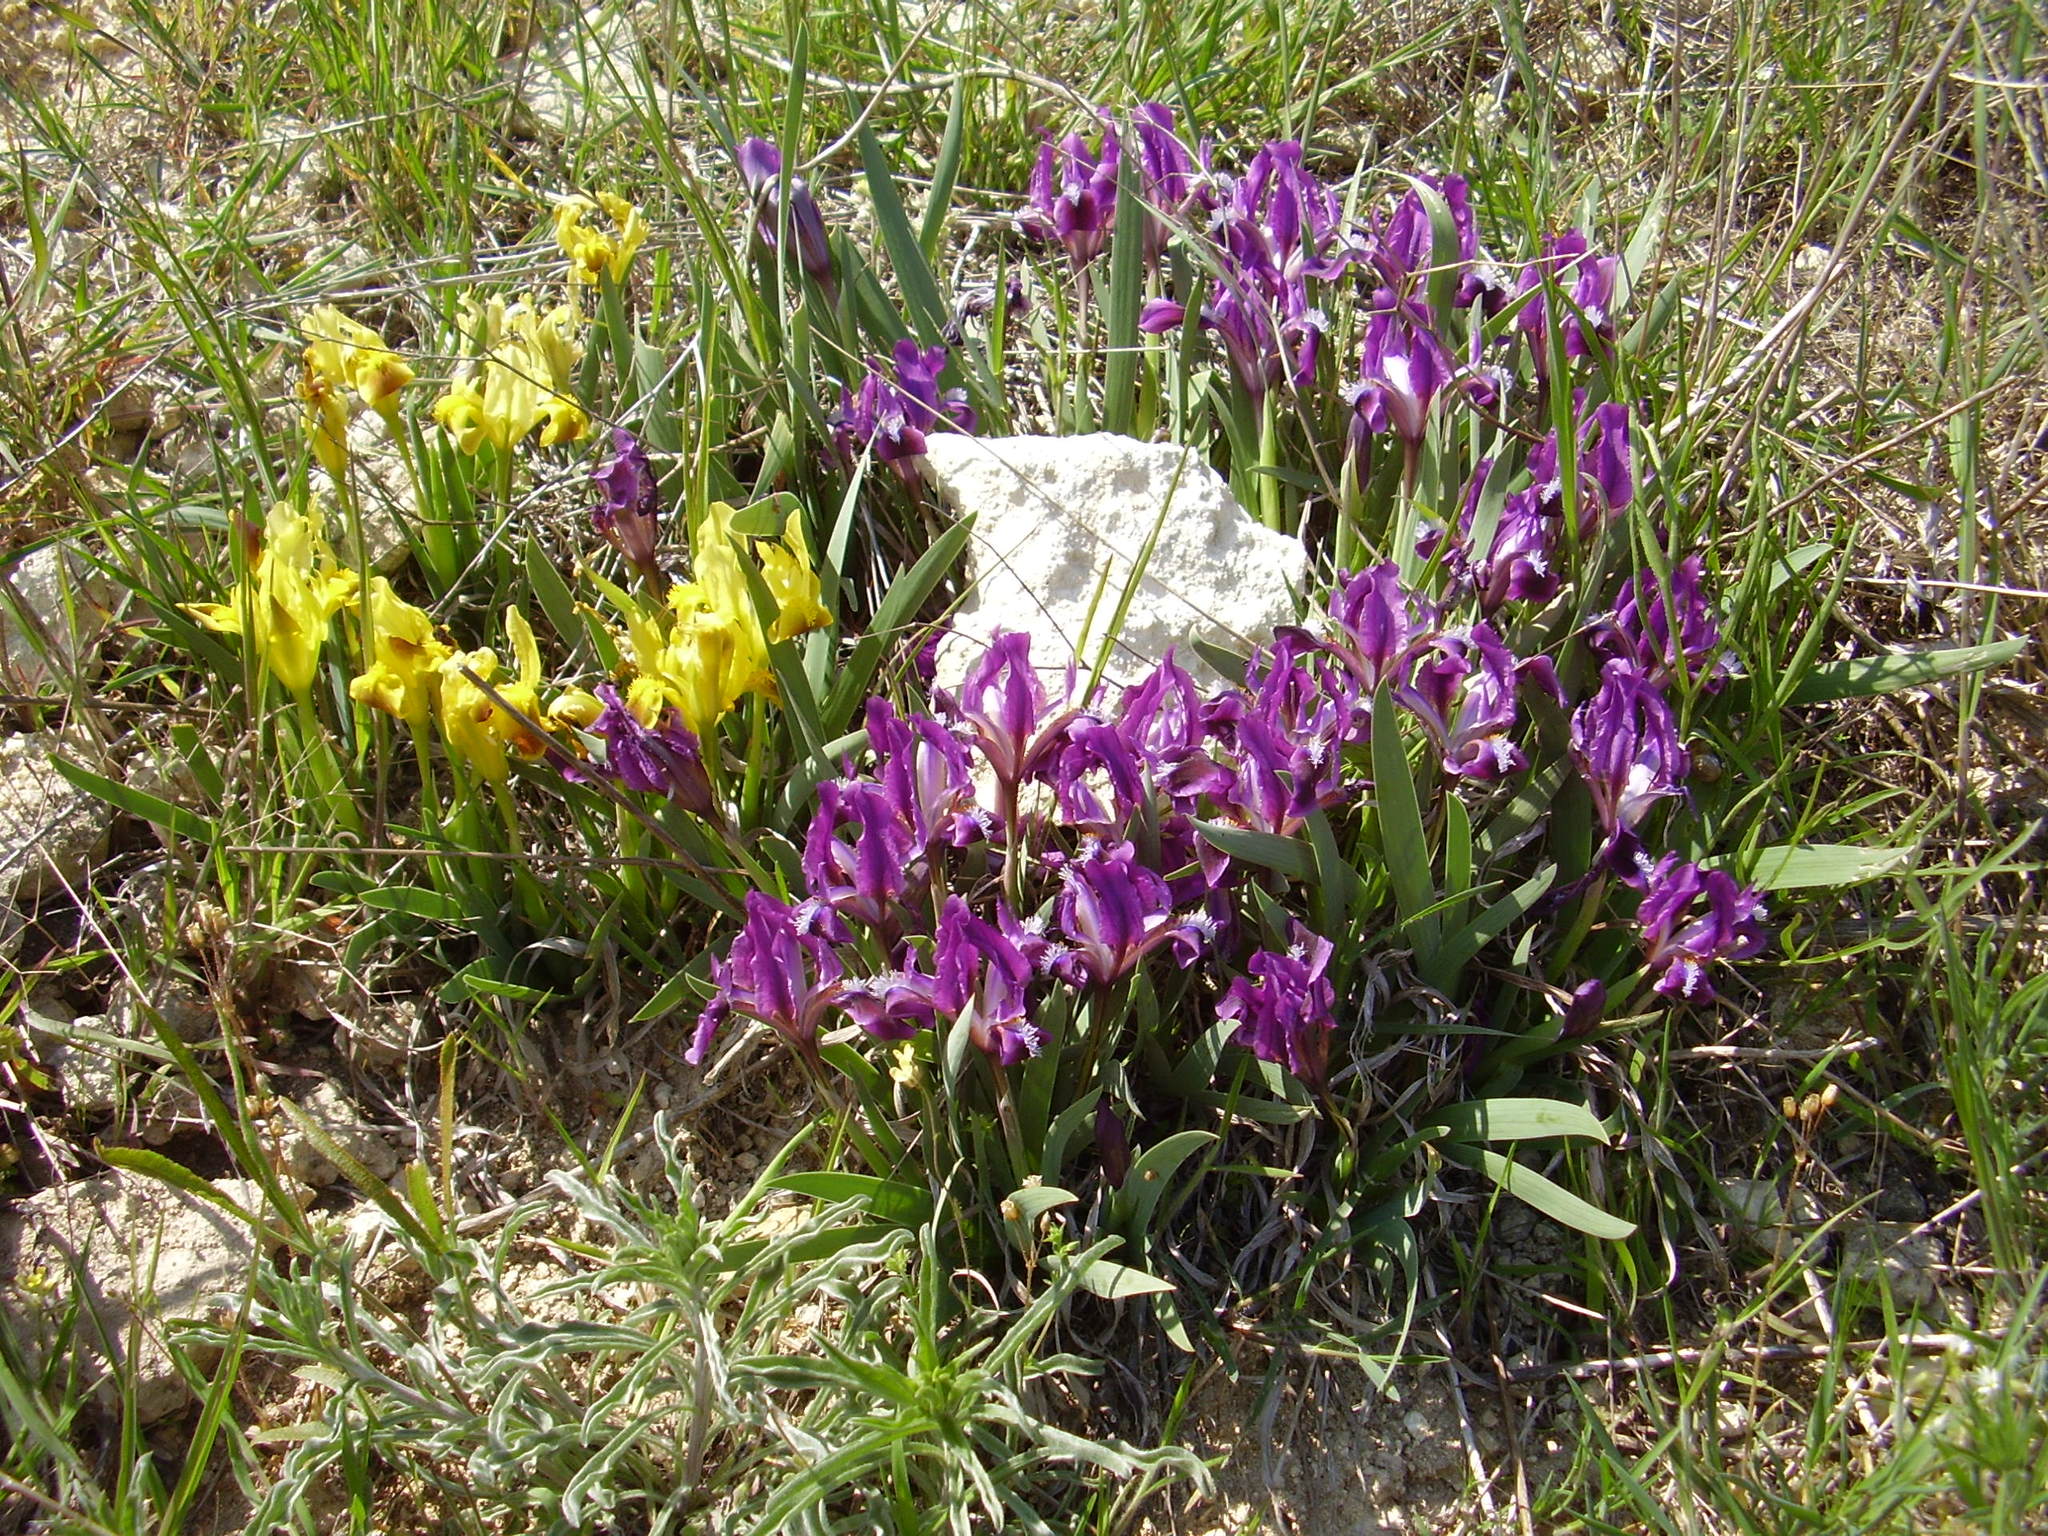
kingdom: Plantae
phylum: Tracheophyta
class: Liliopsida
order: Asparagales
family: Iridaceae
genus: Iris
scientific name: Iris pumila
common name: Dwarf iris
